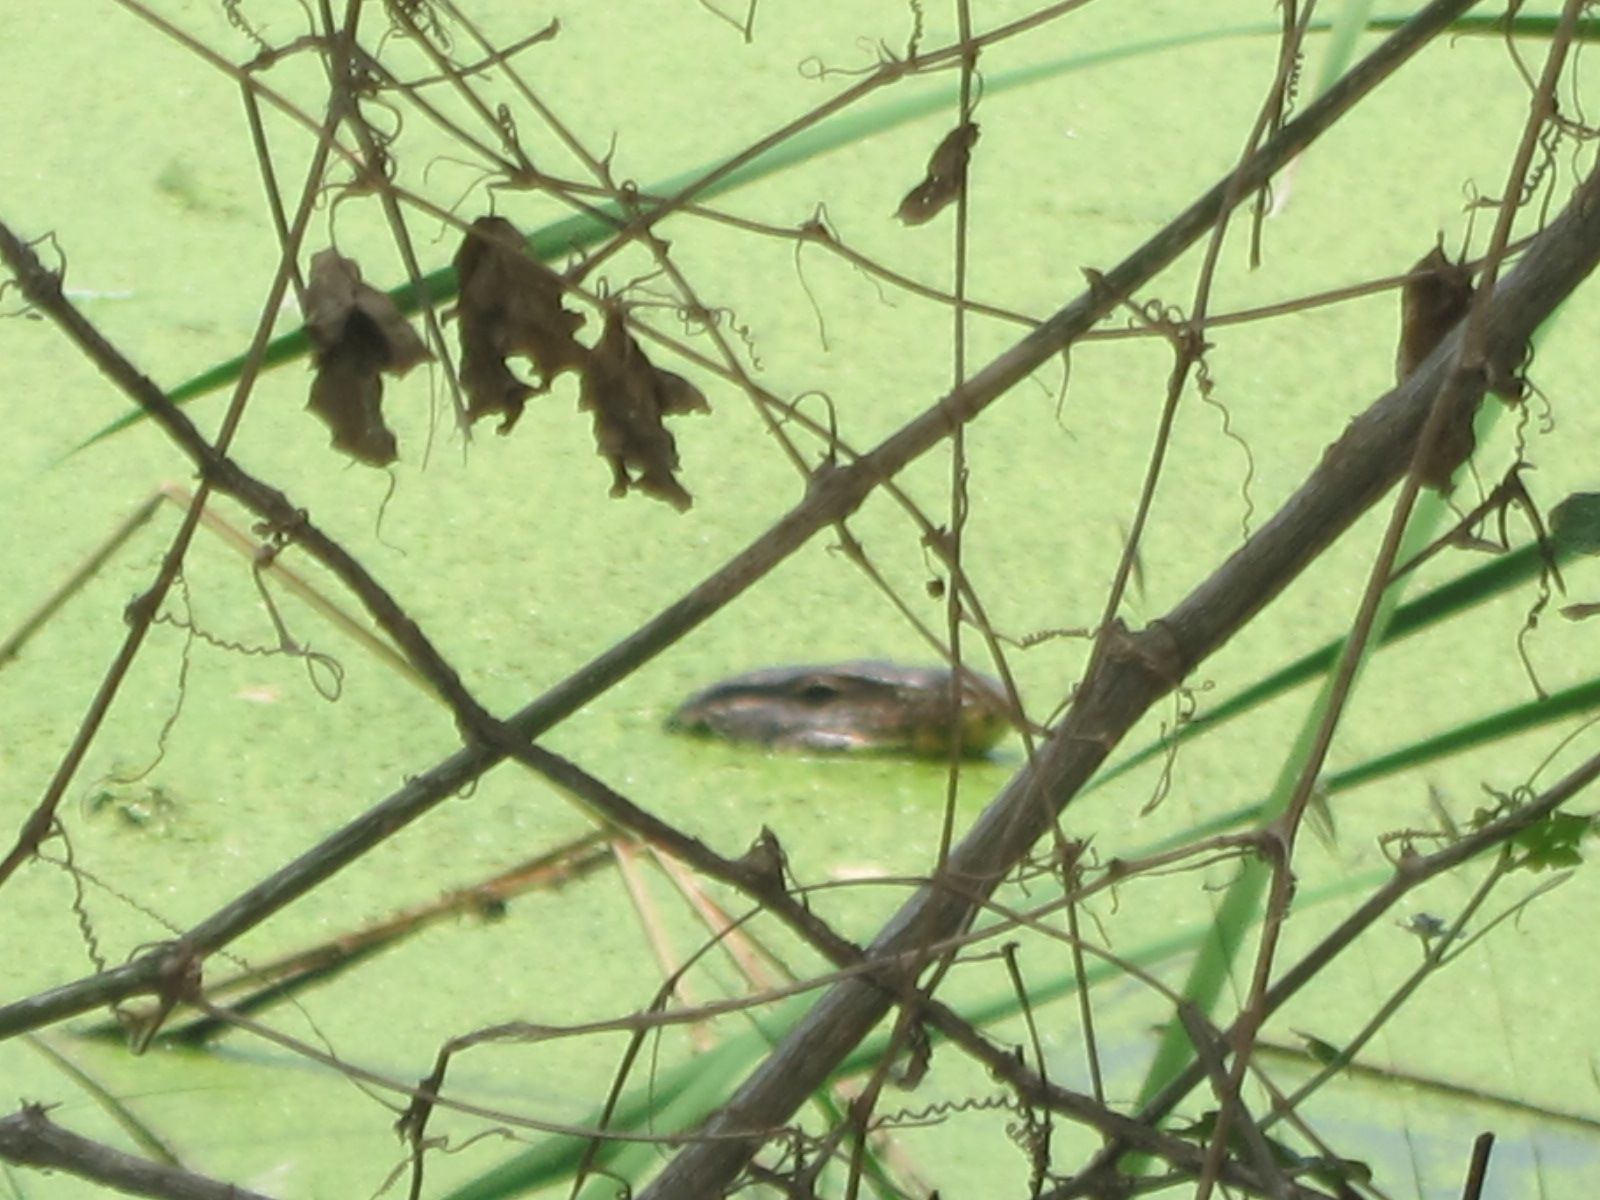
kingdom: Animalia
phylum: Chordata
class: Squamata
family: Varanidae
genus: Varanus
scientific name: Varanus salvator
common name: Common water monitor
